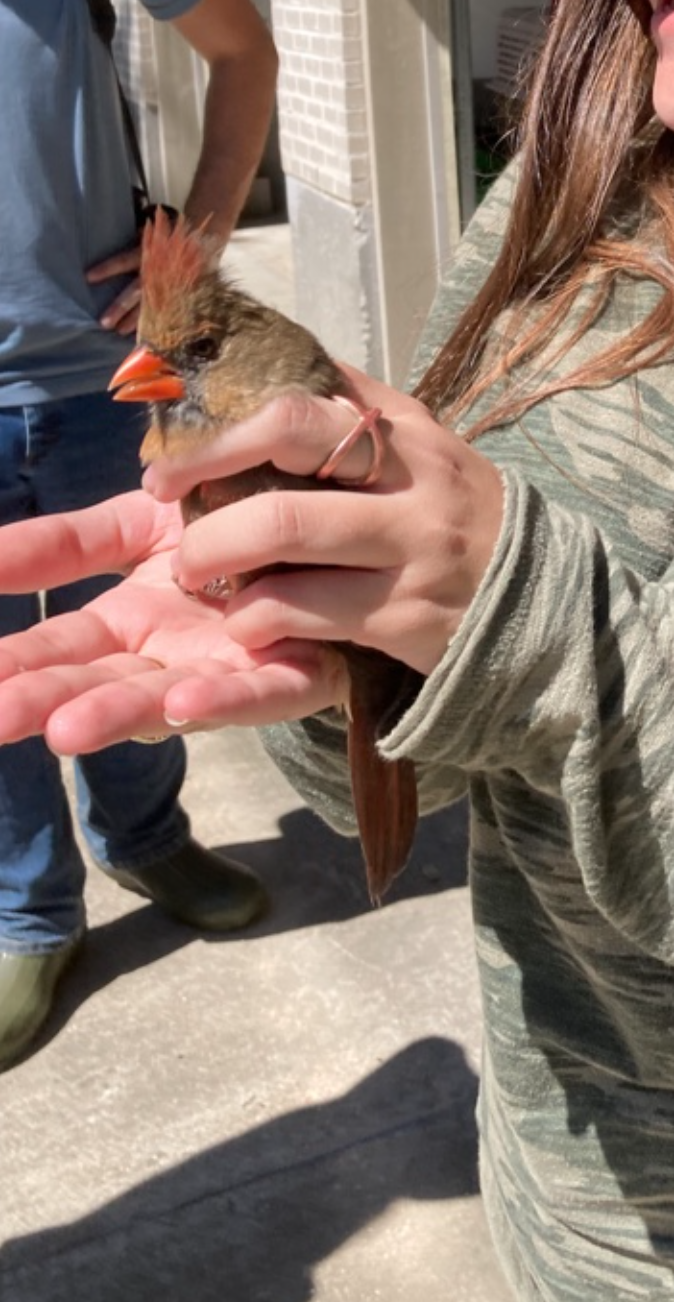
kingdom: Animalia
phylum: Chordata
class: Aves
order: Passeriformes
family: Cardinalidae
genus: Cardinalis
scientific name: Cardinalis cardinalis
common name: Northern cardinal
